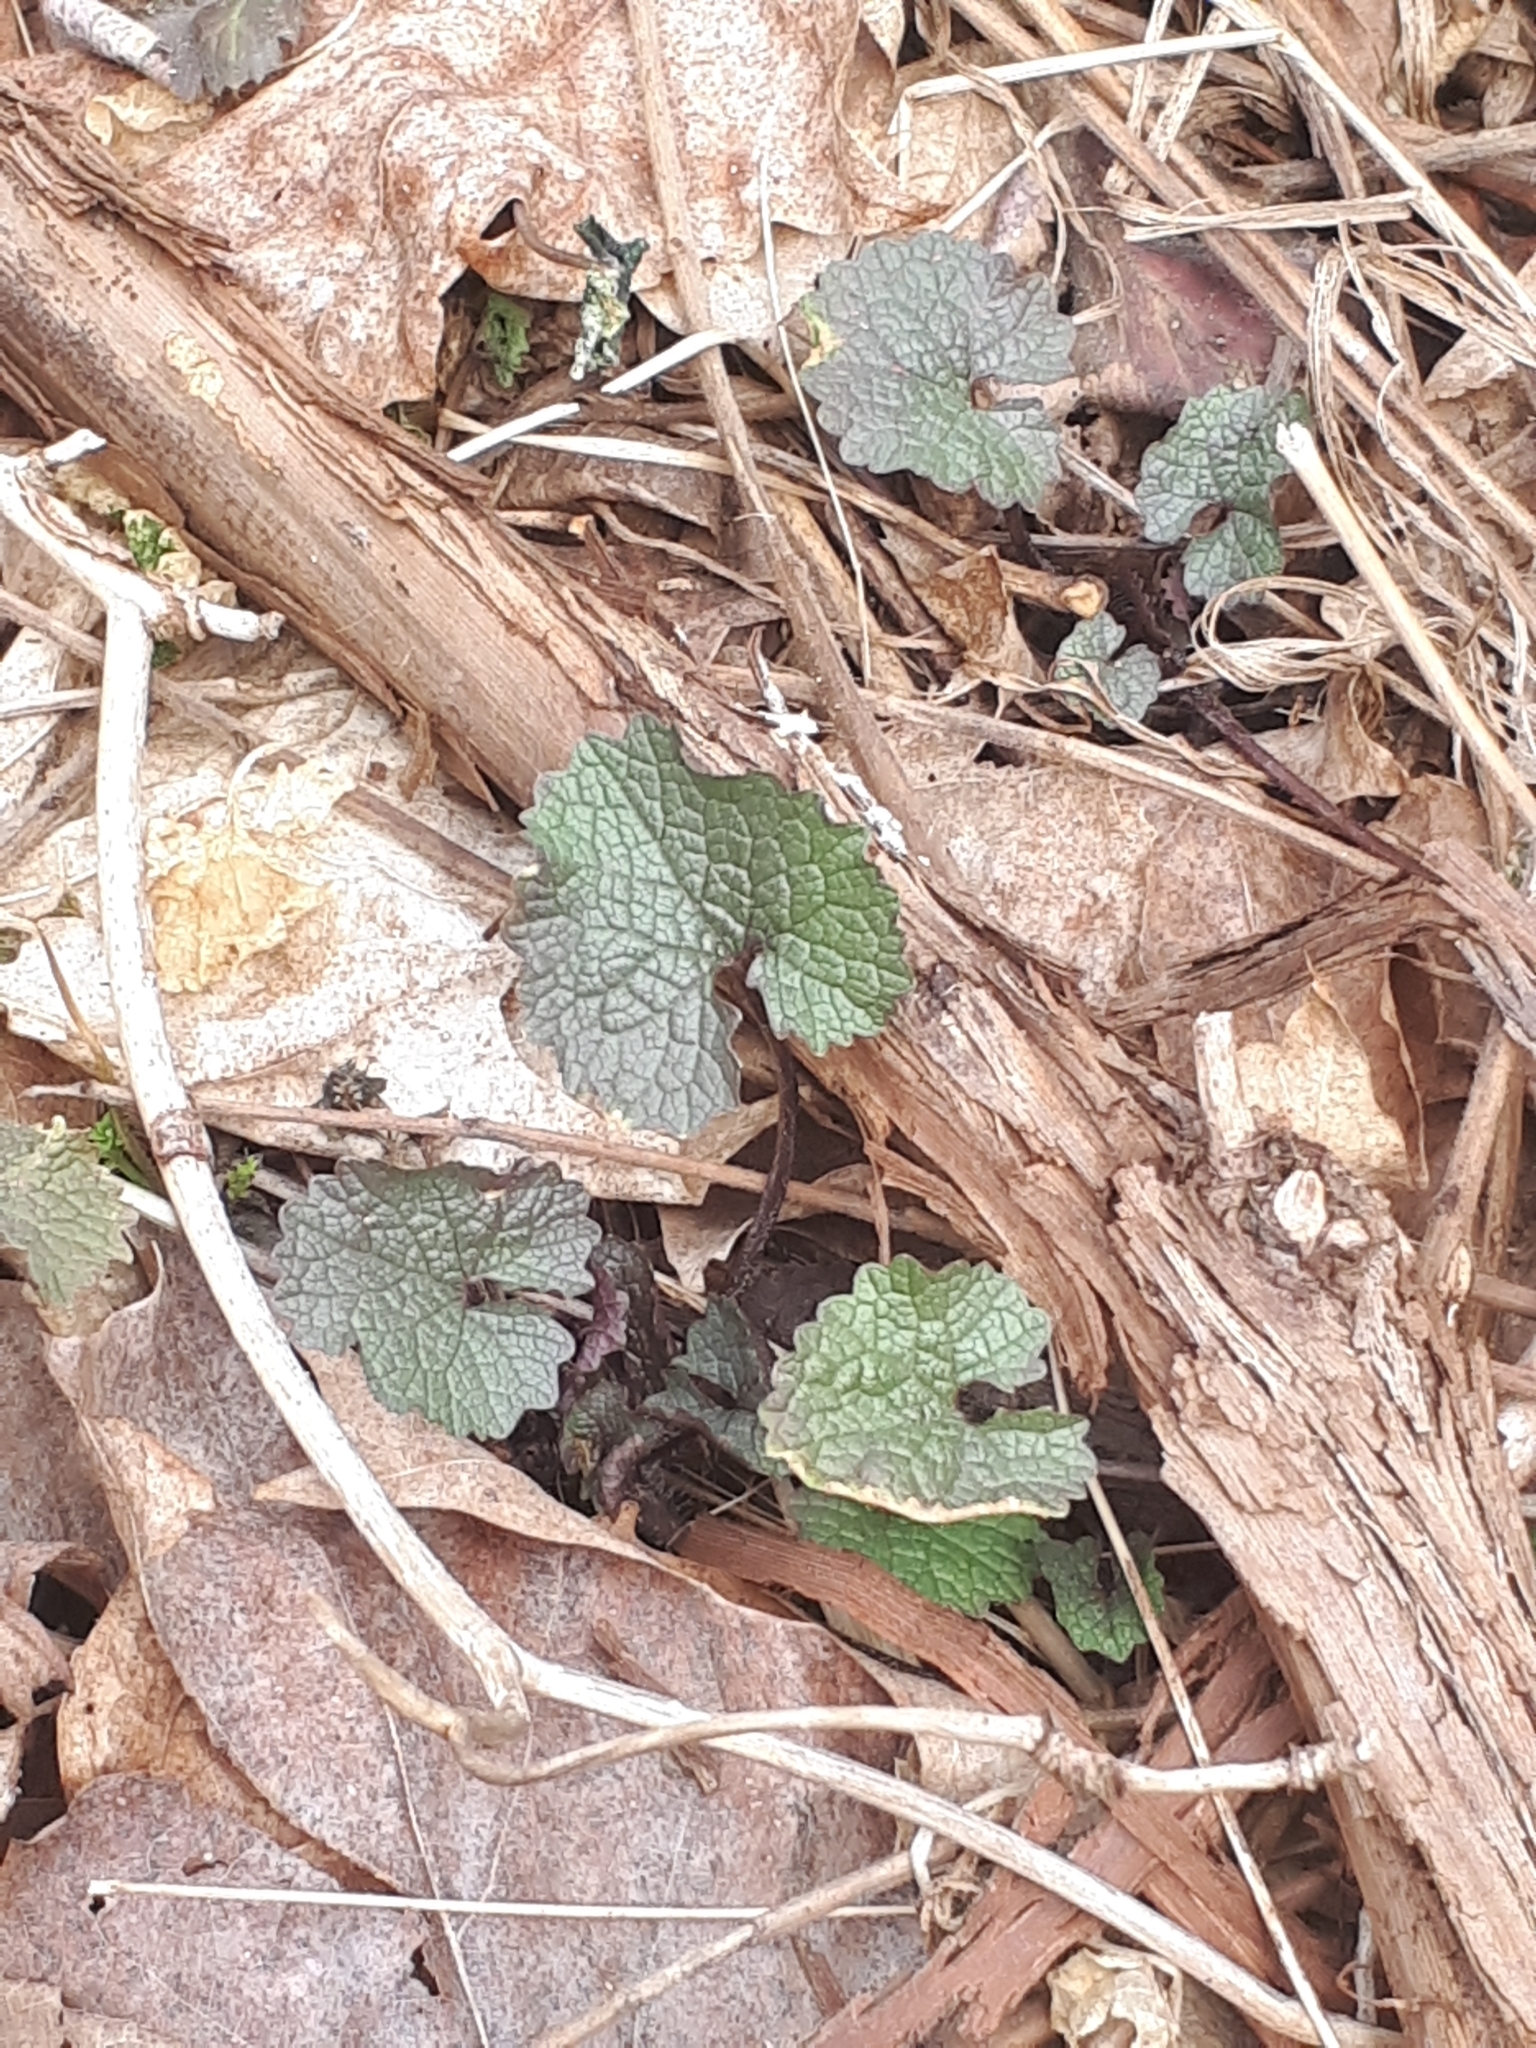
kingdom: Plantae
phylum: Tracheophyta
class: Magnoliopsida
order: Brassicales
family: Brassicaceae
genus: Alliaria
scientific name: Alliaria petiolata
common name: Garlic mustard
